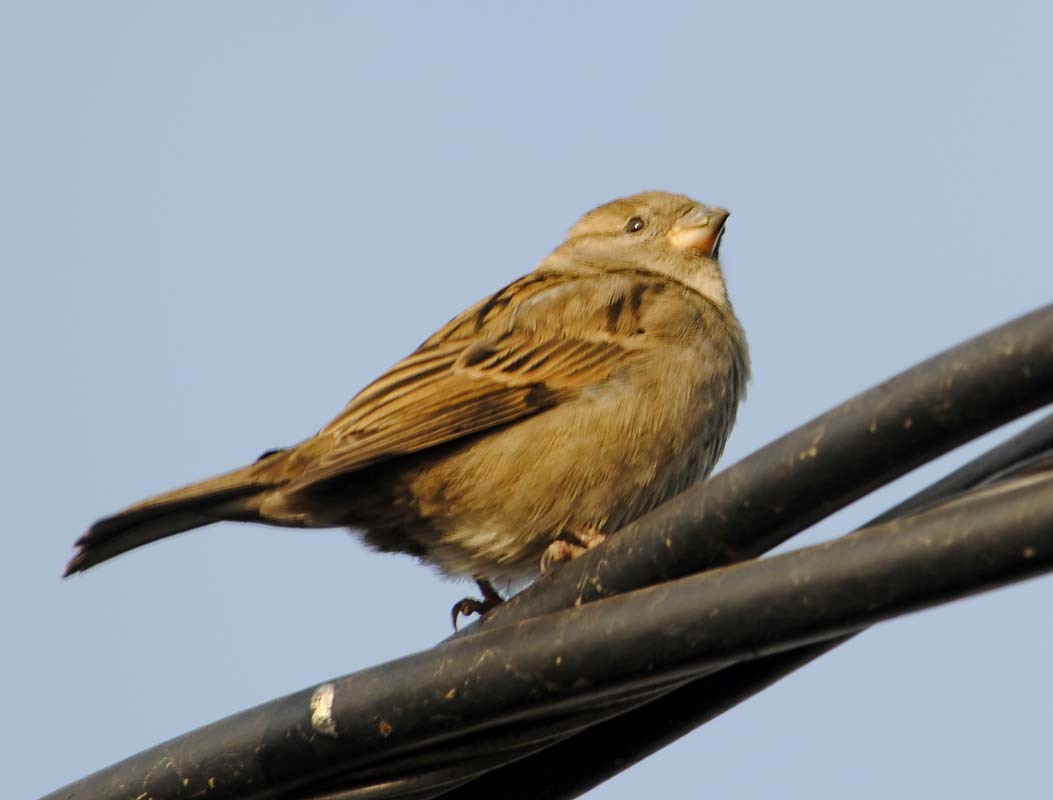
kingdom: Animalia
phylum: Chordata
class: Aves
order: Passeriformes
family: Passeridae
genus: Passer
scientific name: Passer domesticus
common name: House sparrow
